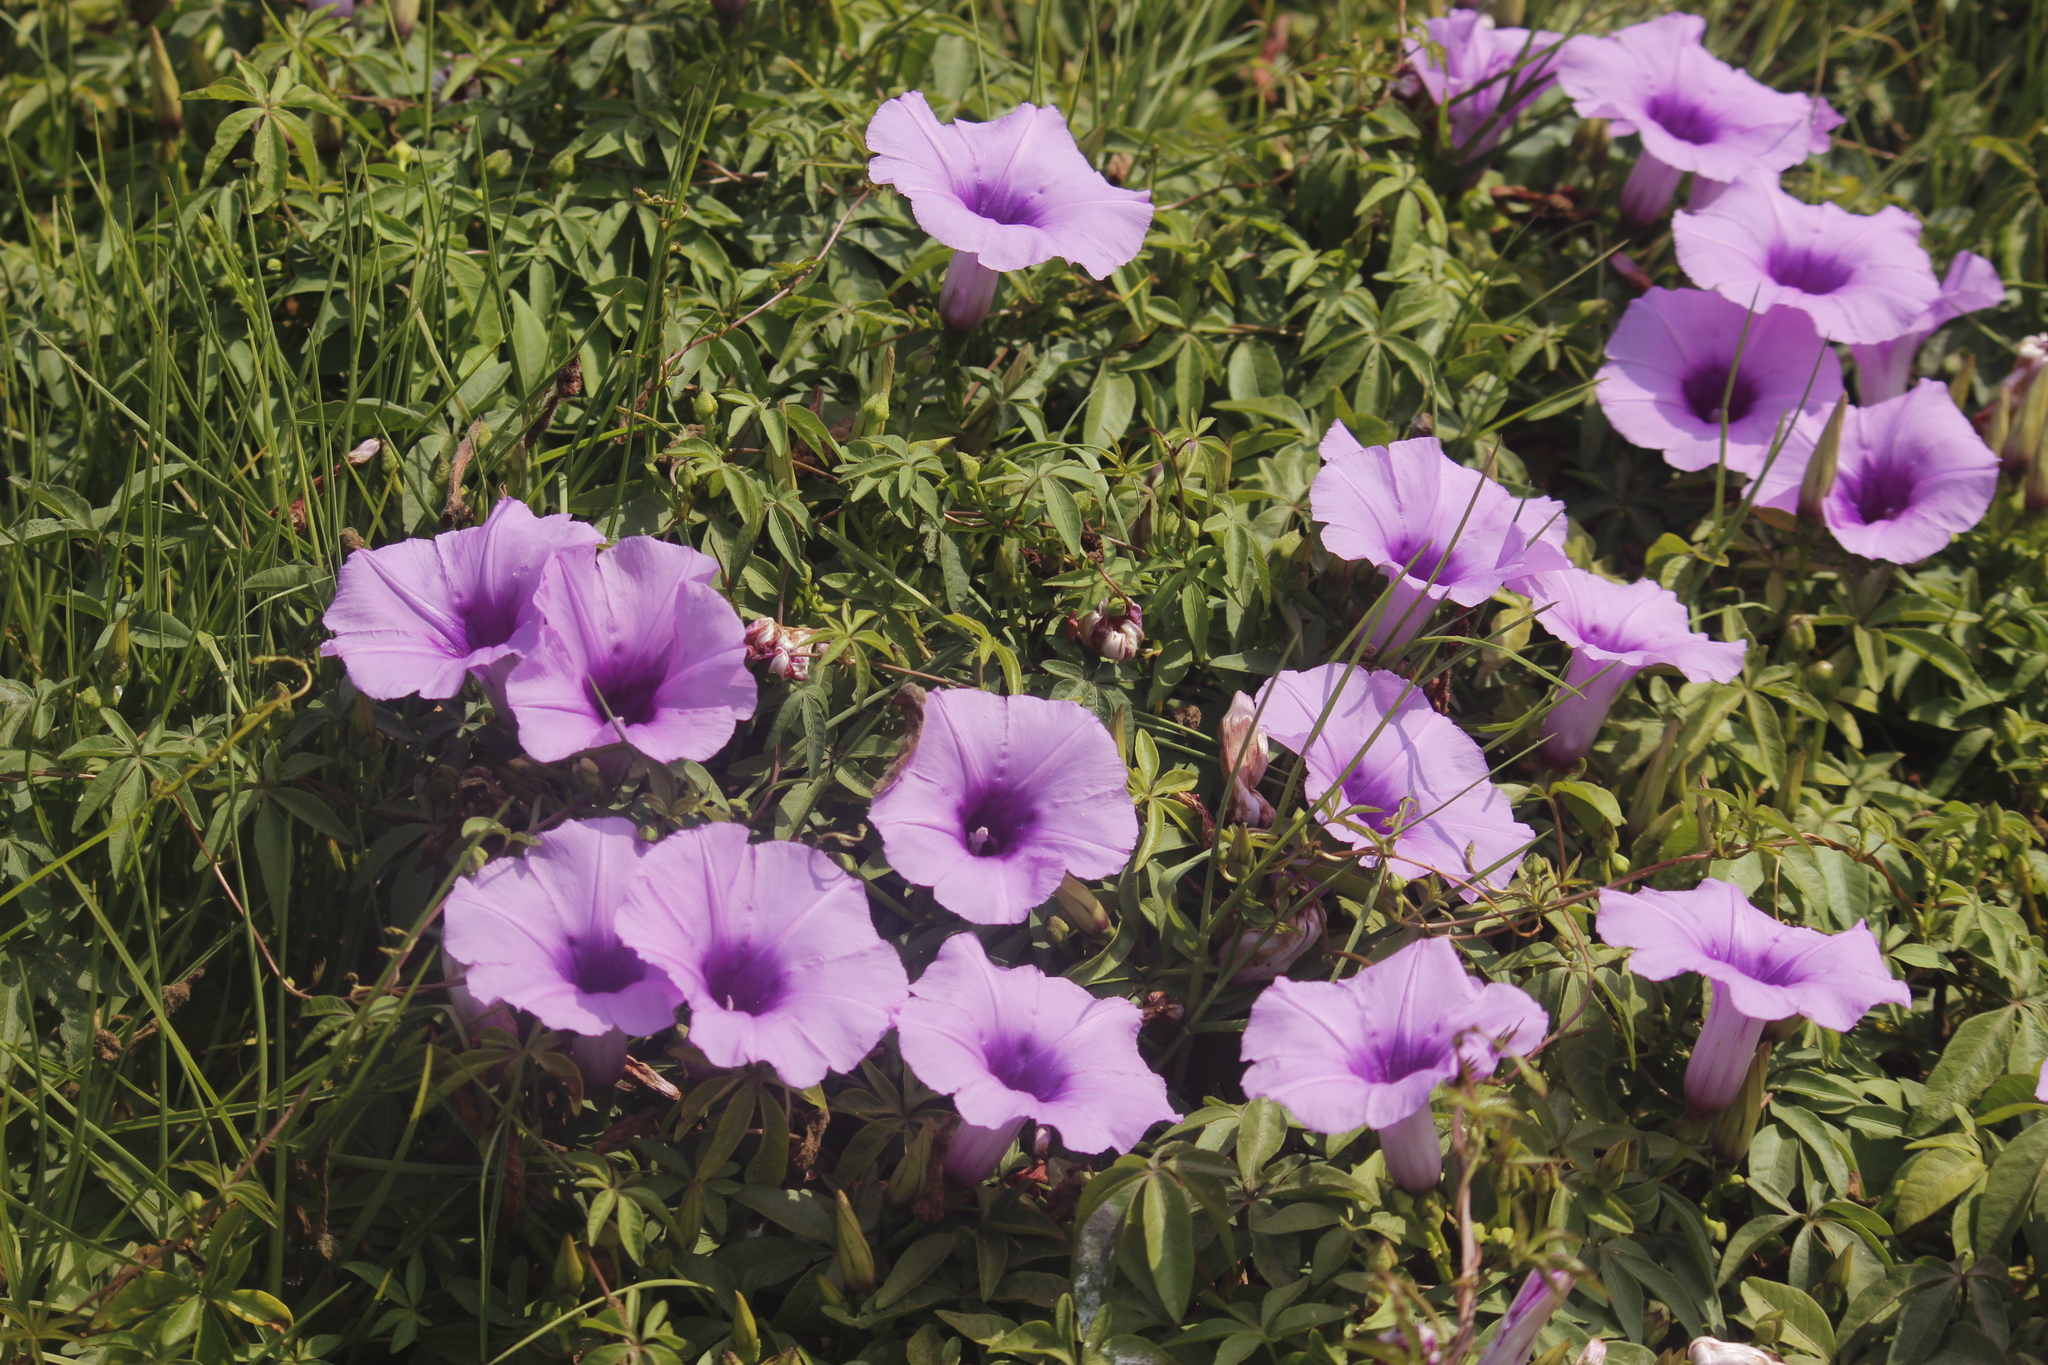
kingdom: Plantae
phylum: Tracheophyta
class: Magnoliopsida
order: Solanales
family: Convolvulaceae
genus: Ipomoea
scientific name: Ipomoea cairica
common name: Mile a minute vine
